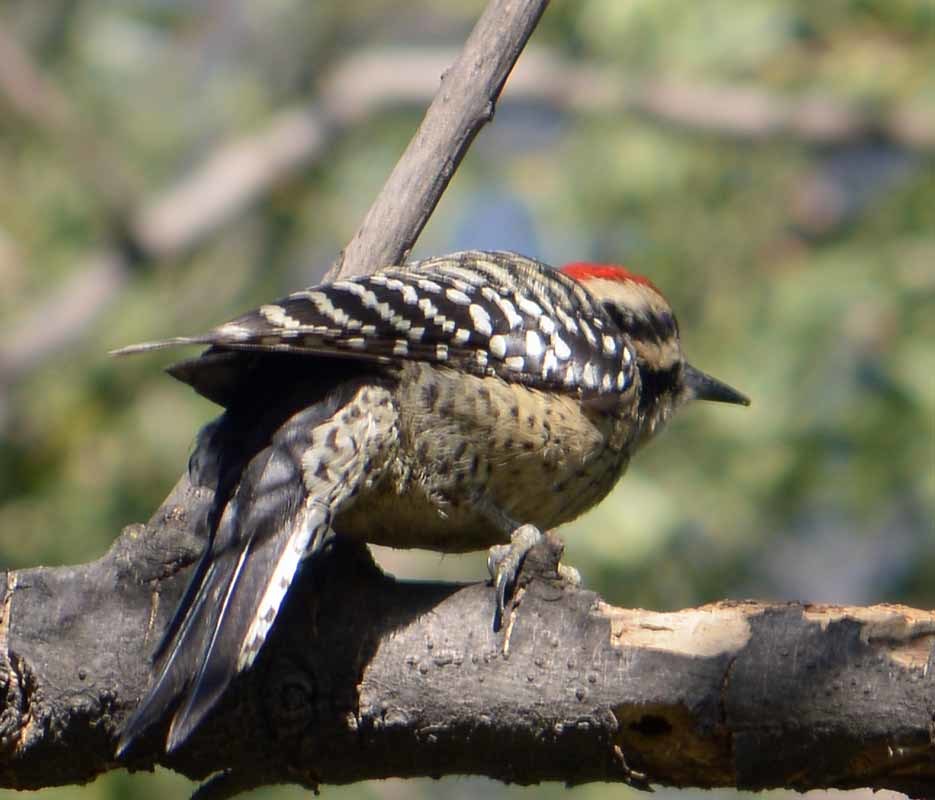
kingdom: Animalia
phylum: Chordata
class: Aves
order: Piciformes
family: Picidae
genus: Dryobates
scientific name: Dryobates scalaris
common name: Ladder-backed woodpecker
